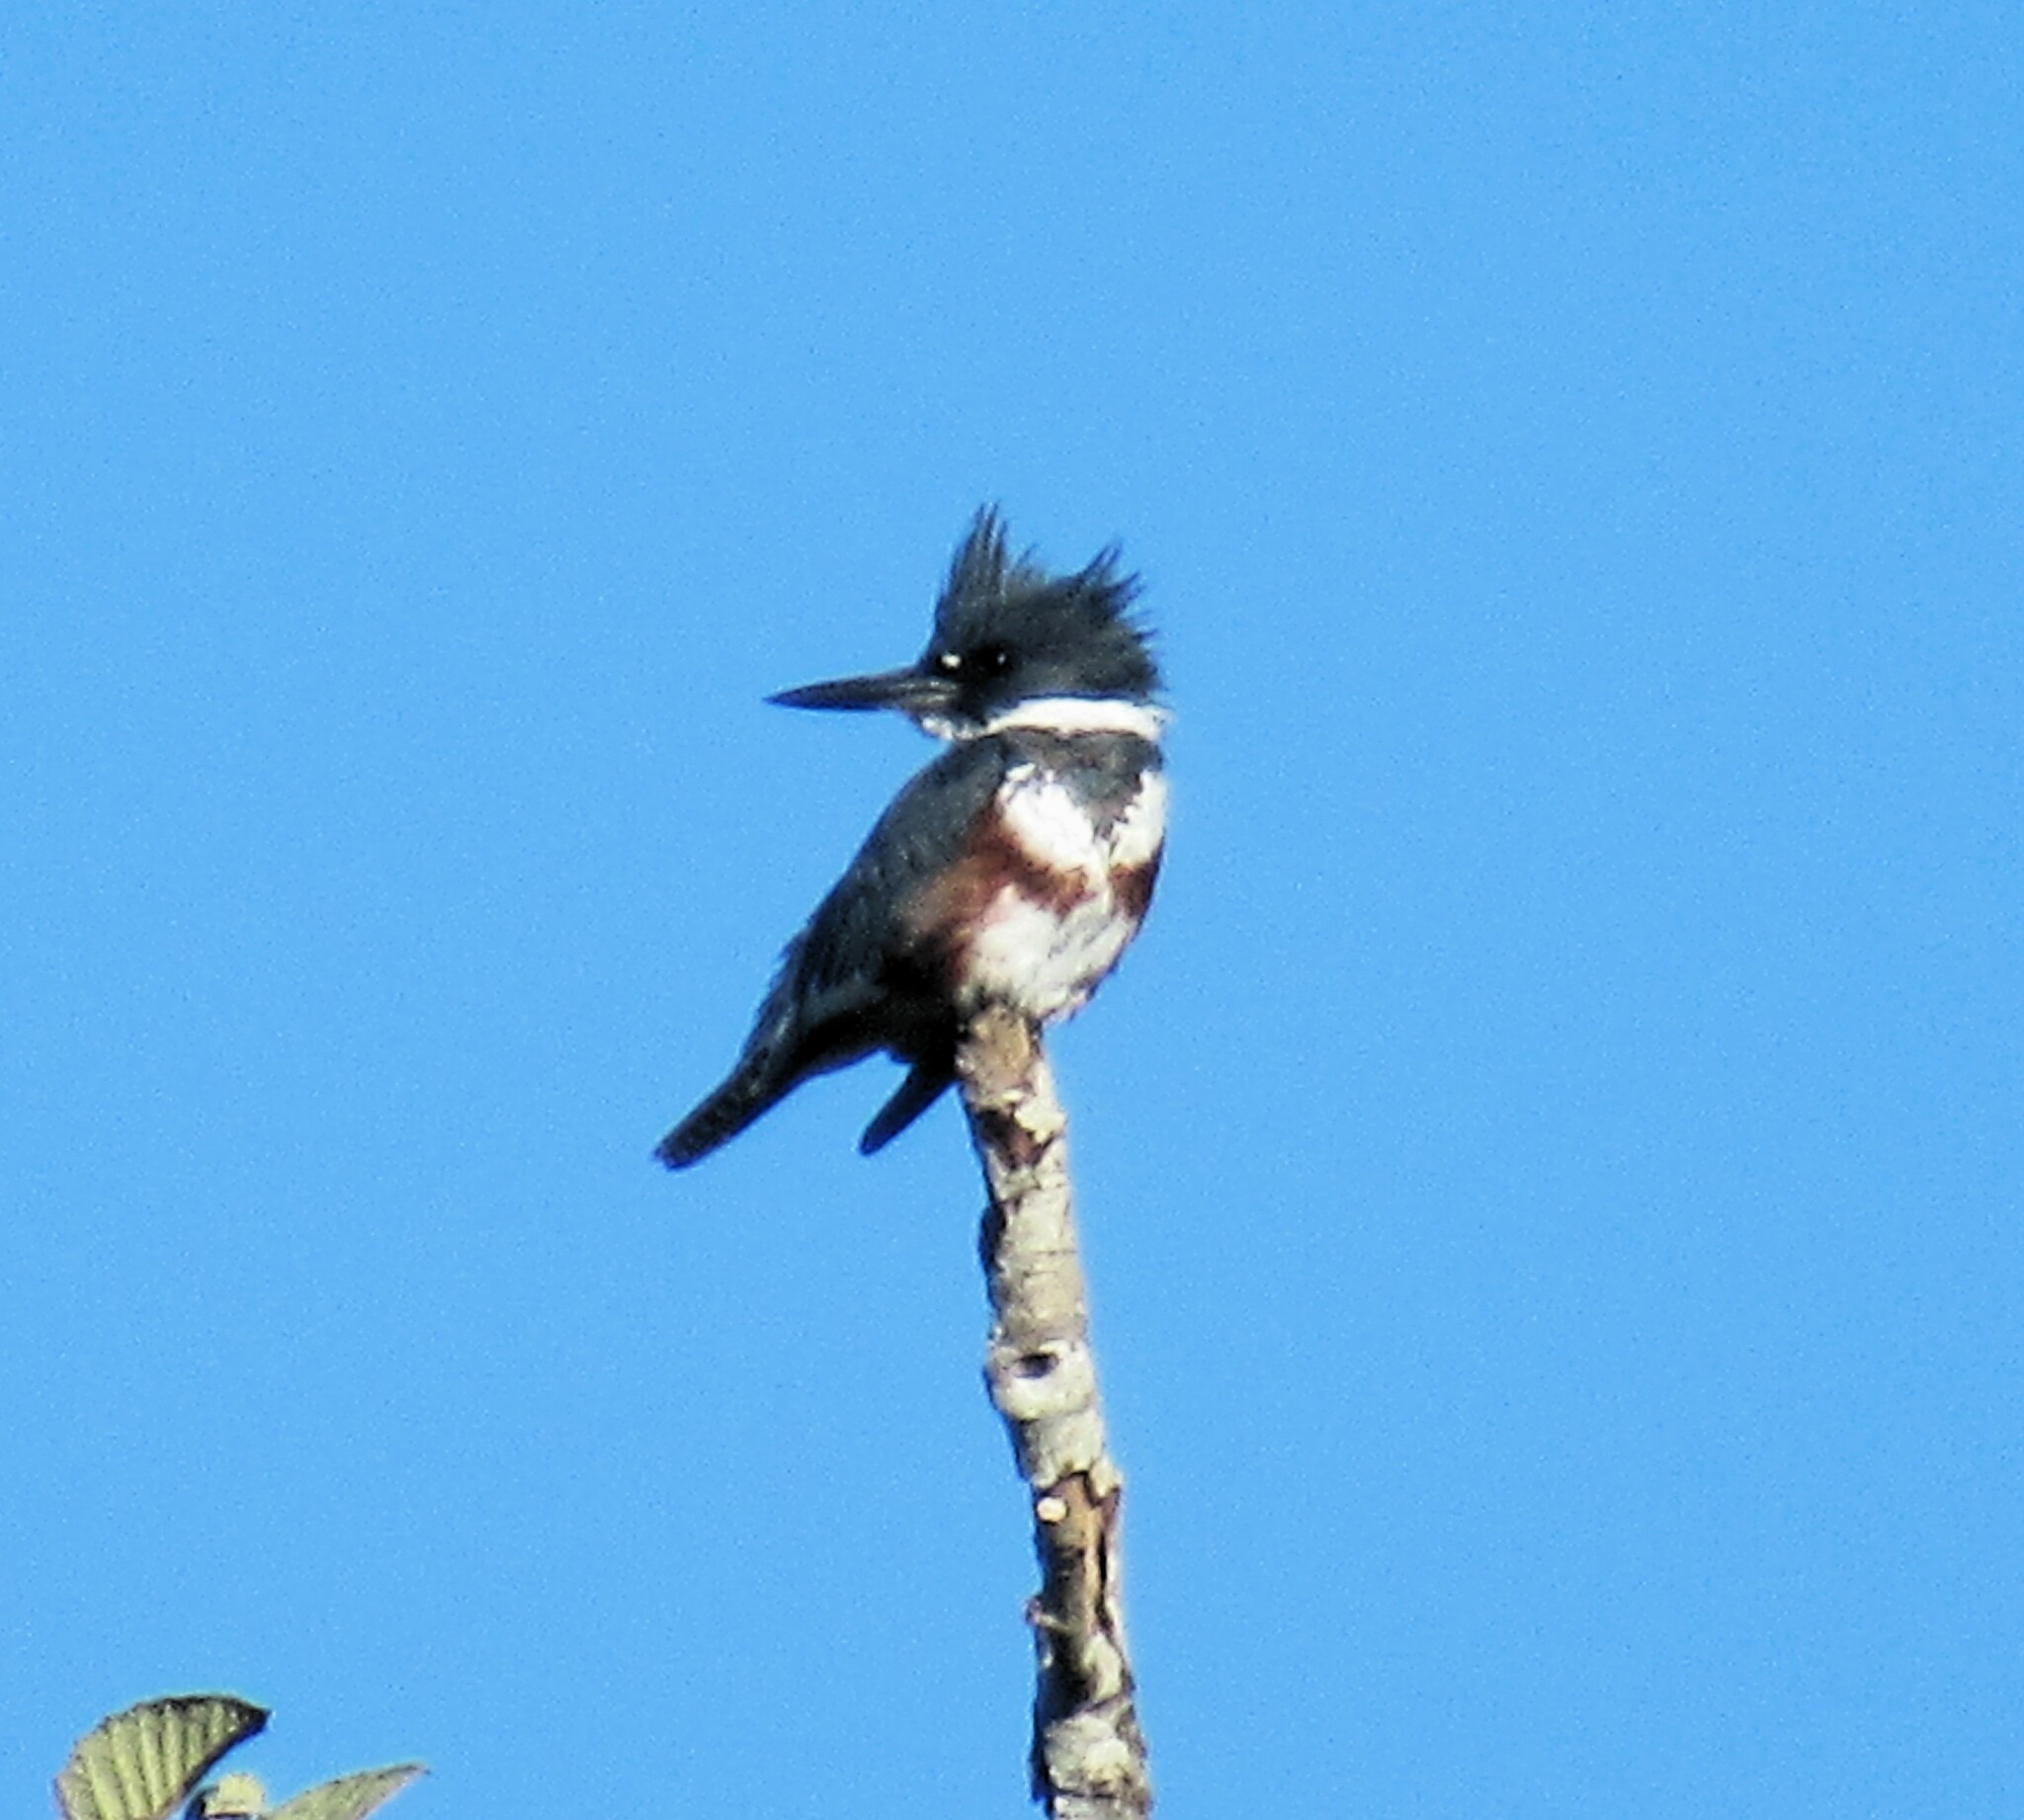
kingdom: Animalia
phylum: Chordata
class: Aves
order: Coraciiformes
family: Alcedinidae
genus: Megaceryle
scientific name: Megaceryle alcyon
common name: Belted kingfisher
